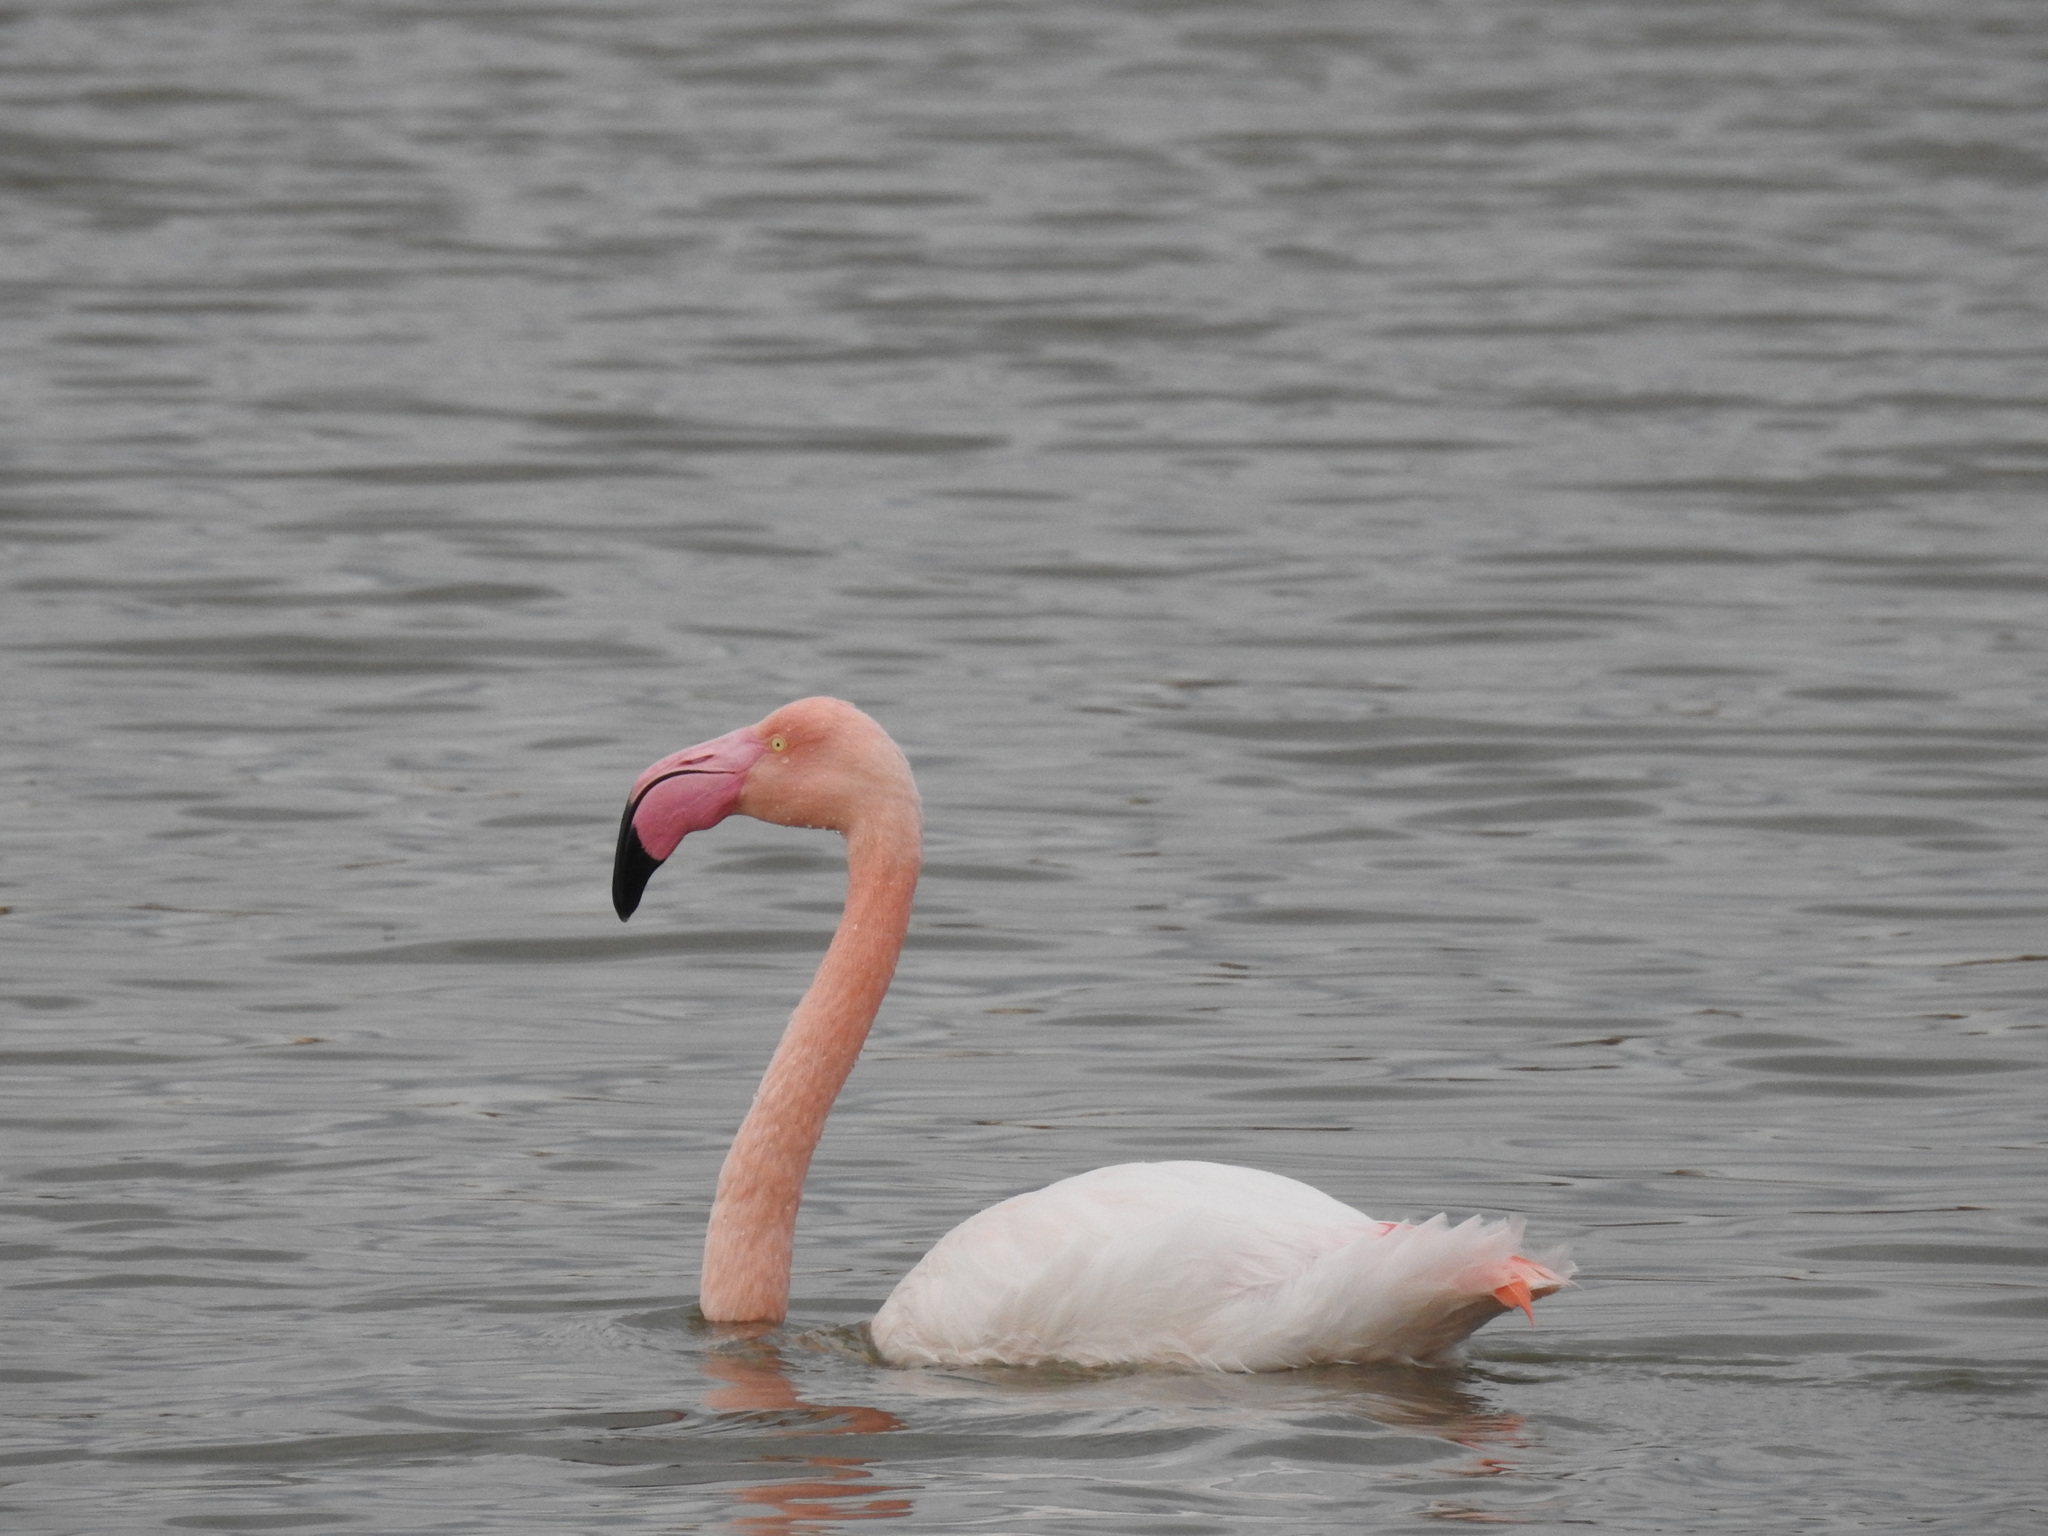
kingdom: Animalia
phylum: Chordata
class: Aves
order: Phoenicopteriformes
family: Phoenicopteridae
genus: Phoenicopterus
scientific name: Phoenicopterus roseus
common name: Greater flamingo
